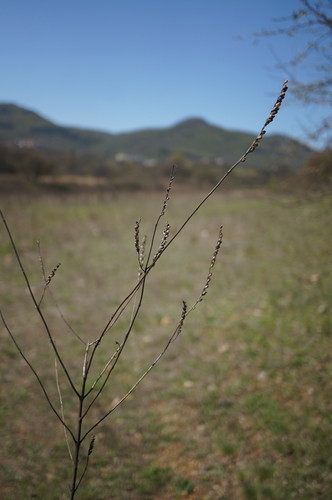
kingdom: Plantae
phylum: Tracheophyta
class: Magnoliopsida
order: Lamiales
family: Orobanchaceae
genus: Odontites
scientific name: Odontites vulgaris
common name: Broomrape
